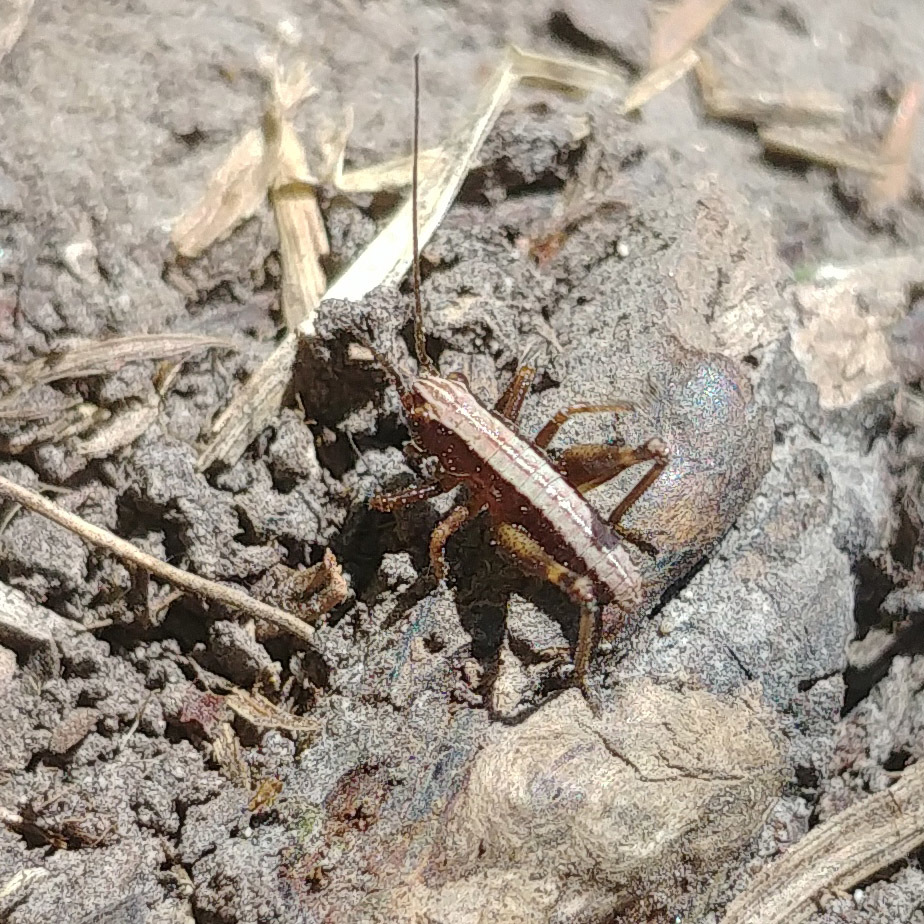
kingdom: Animalia
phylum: Arthropoda
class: Insecta
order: Orthoptera
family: Tettigoniidae
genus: Pholidoptera
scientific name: Pholidoptera griseoaptera
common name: Dark bush-cricket
